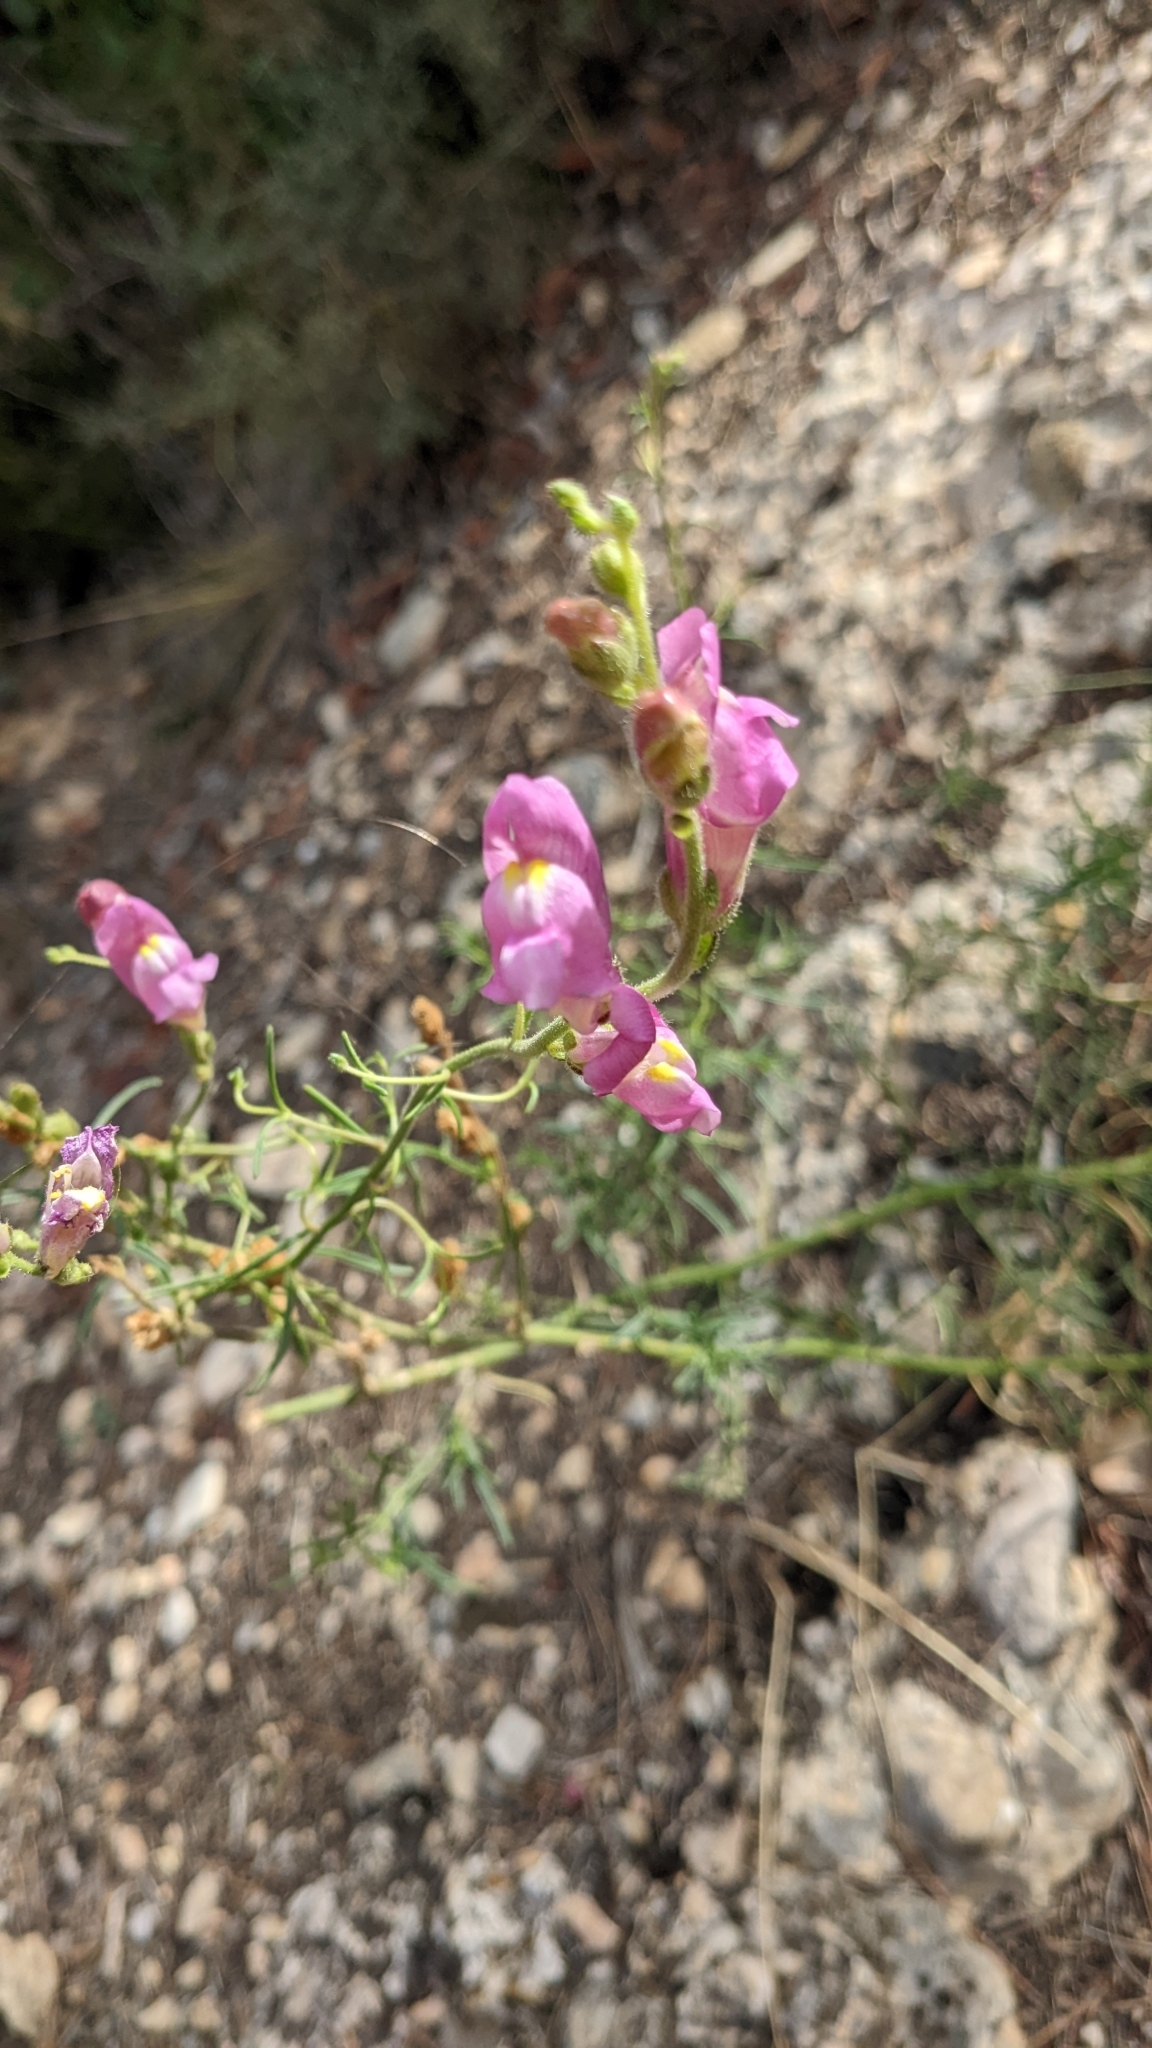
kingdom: Plantae
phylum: Tracheophyta
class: Magnoliopsida
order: Lamiales
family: Plantaginaceae
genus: Antirrhinum
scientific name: Antirrhinum litigiosum
